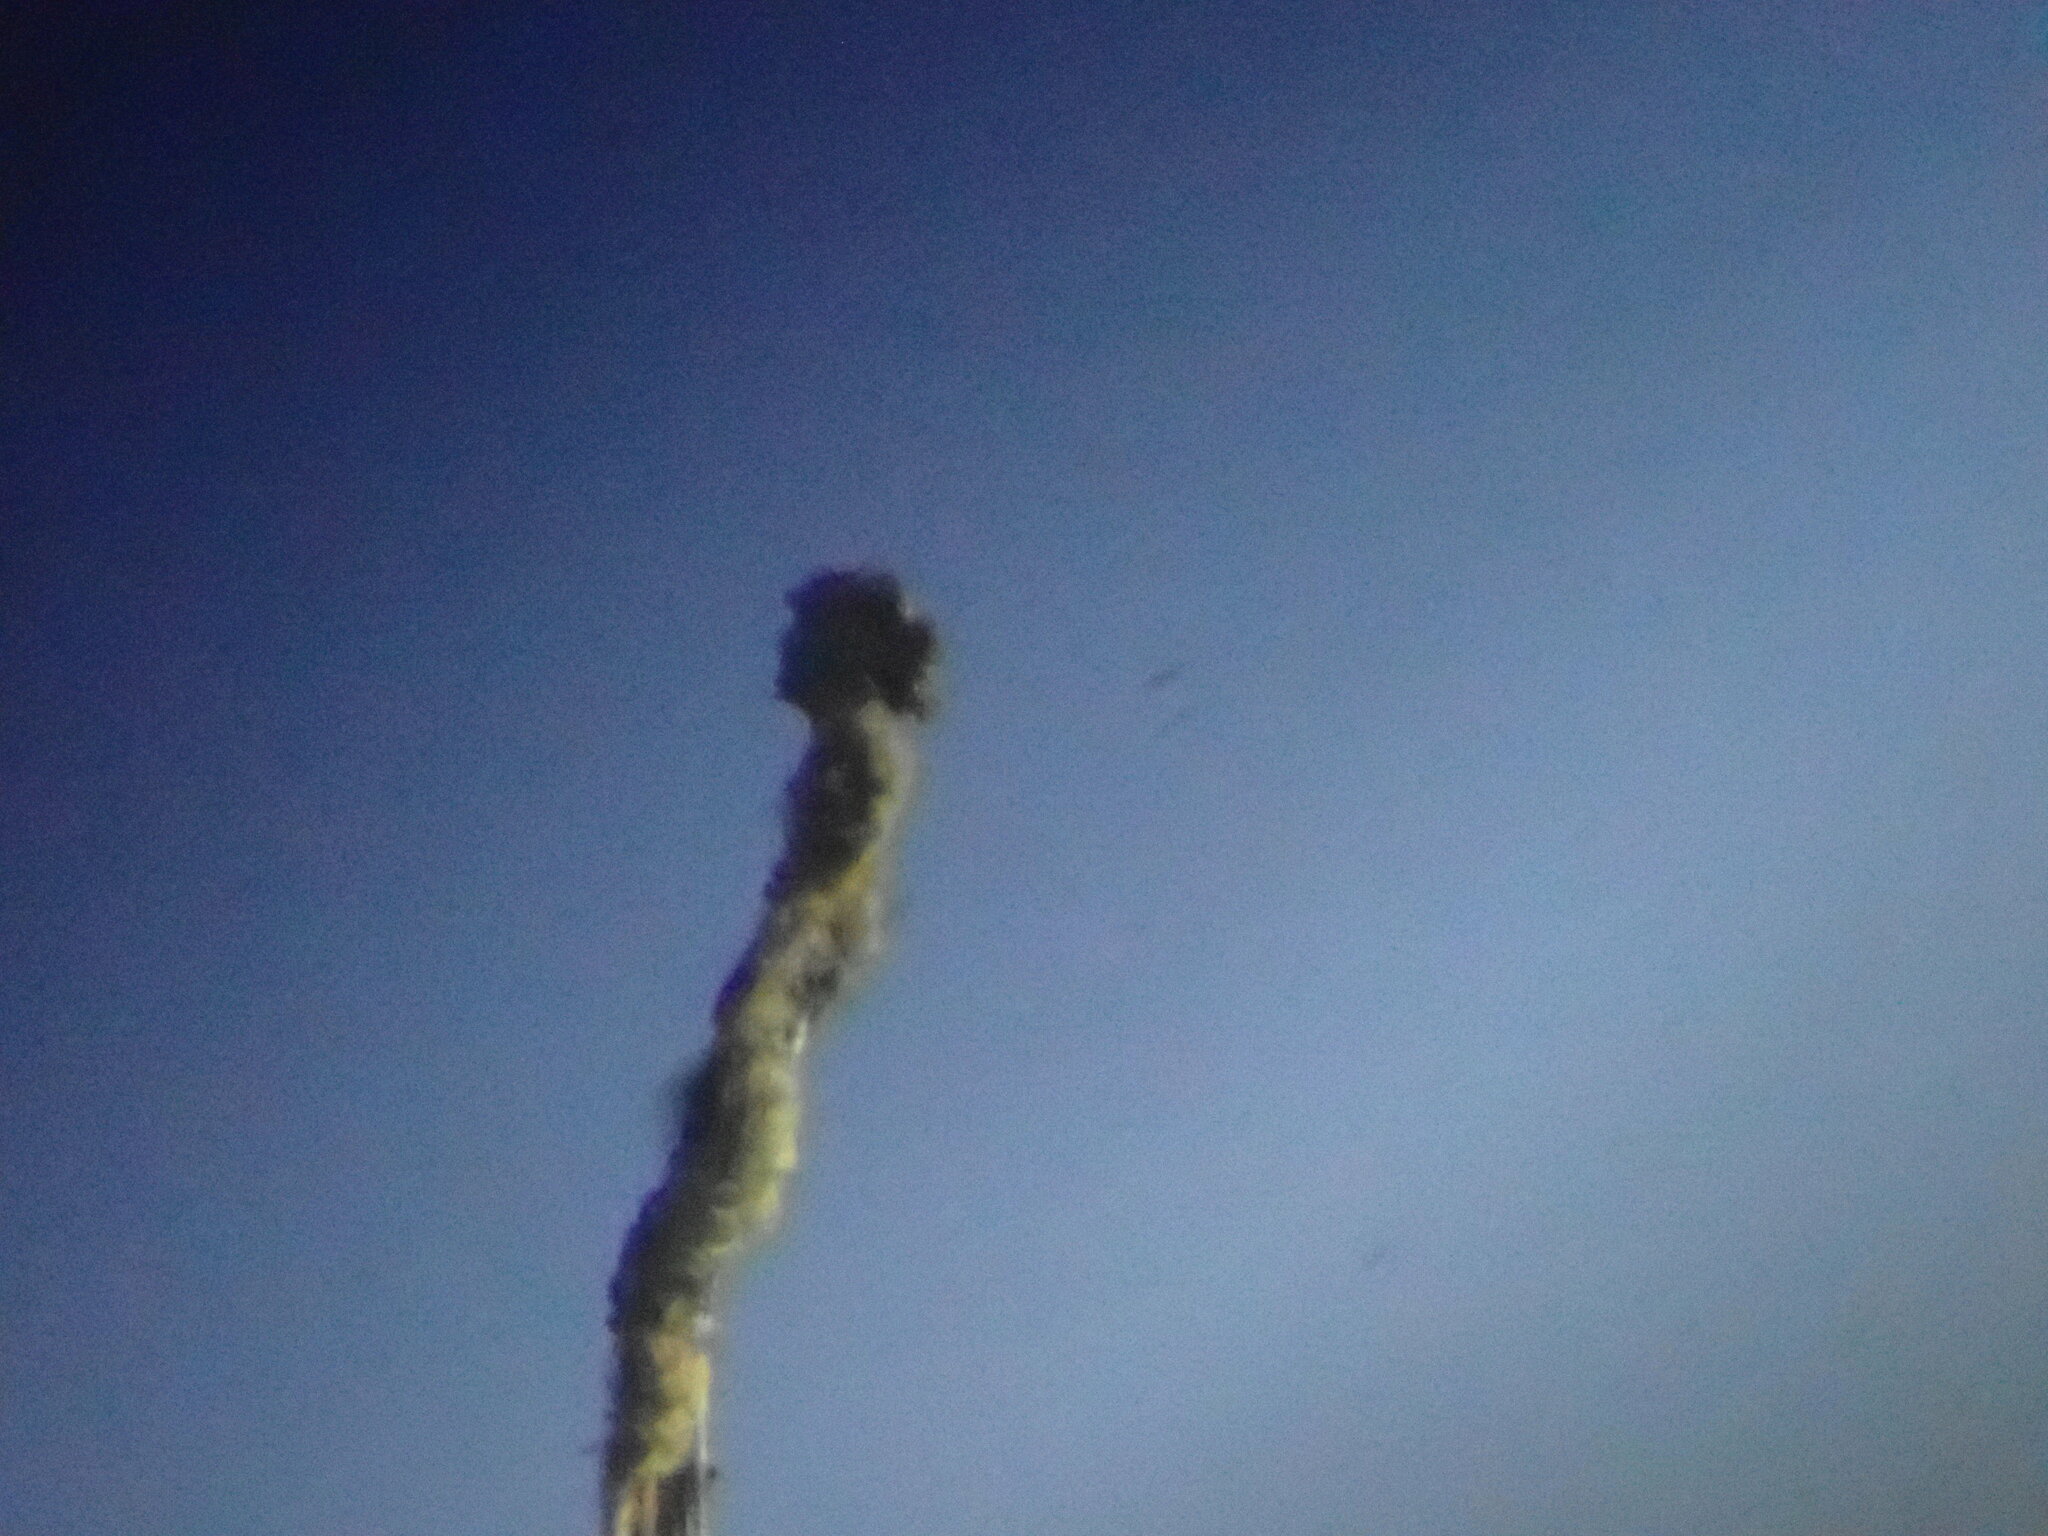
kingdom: Fungi
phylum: Ascomycota
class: Lecanoromycetes
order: Caliciales
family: Caliciaceae
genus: Acroscyphus
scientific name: Acroscyphus sphaerophoroides
